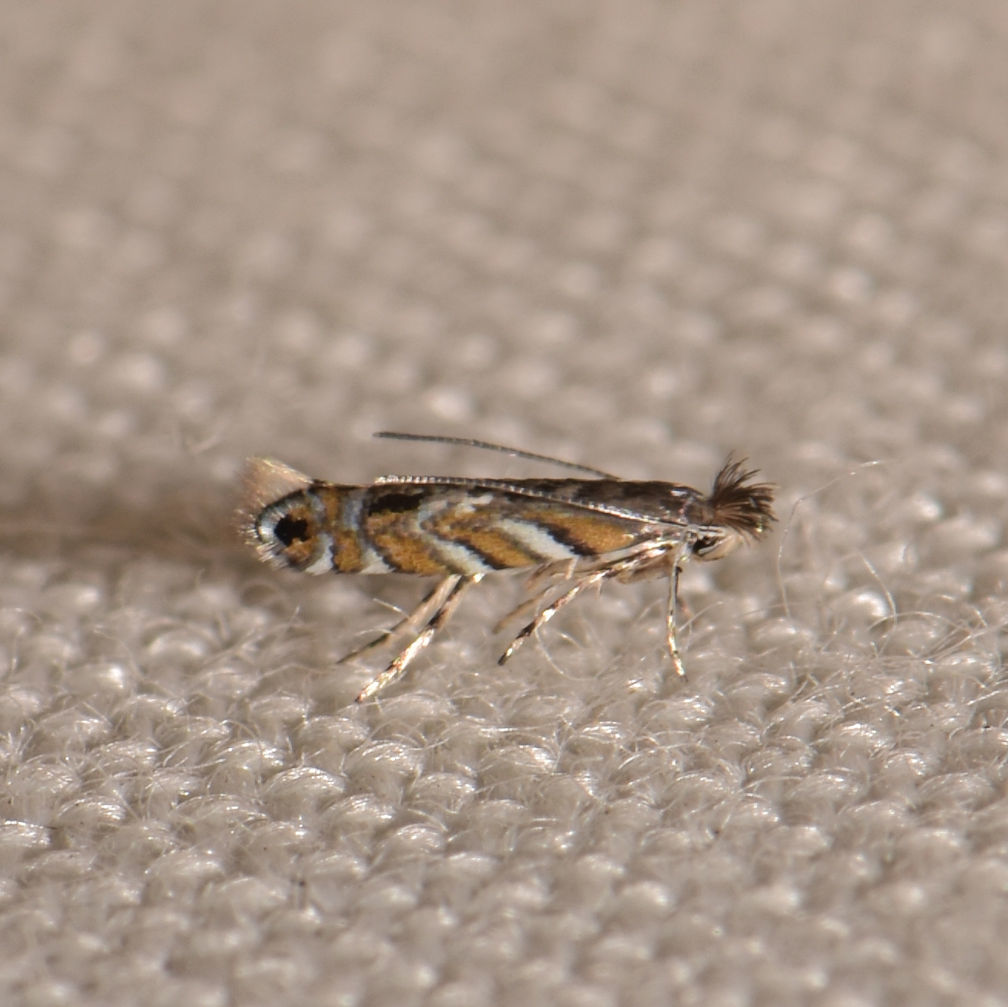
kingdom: Animalia
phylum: Arthropoda
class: Insecta
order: Lepidoptera
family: Gracillariidae
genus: Macrosaccus
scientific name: Macrosaccus robiniella
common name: Leaf blotch miner moth
